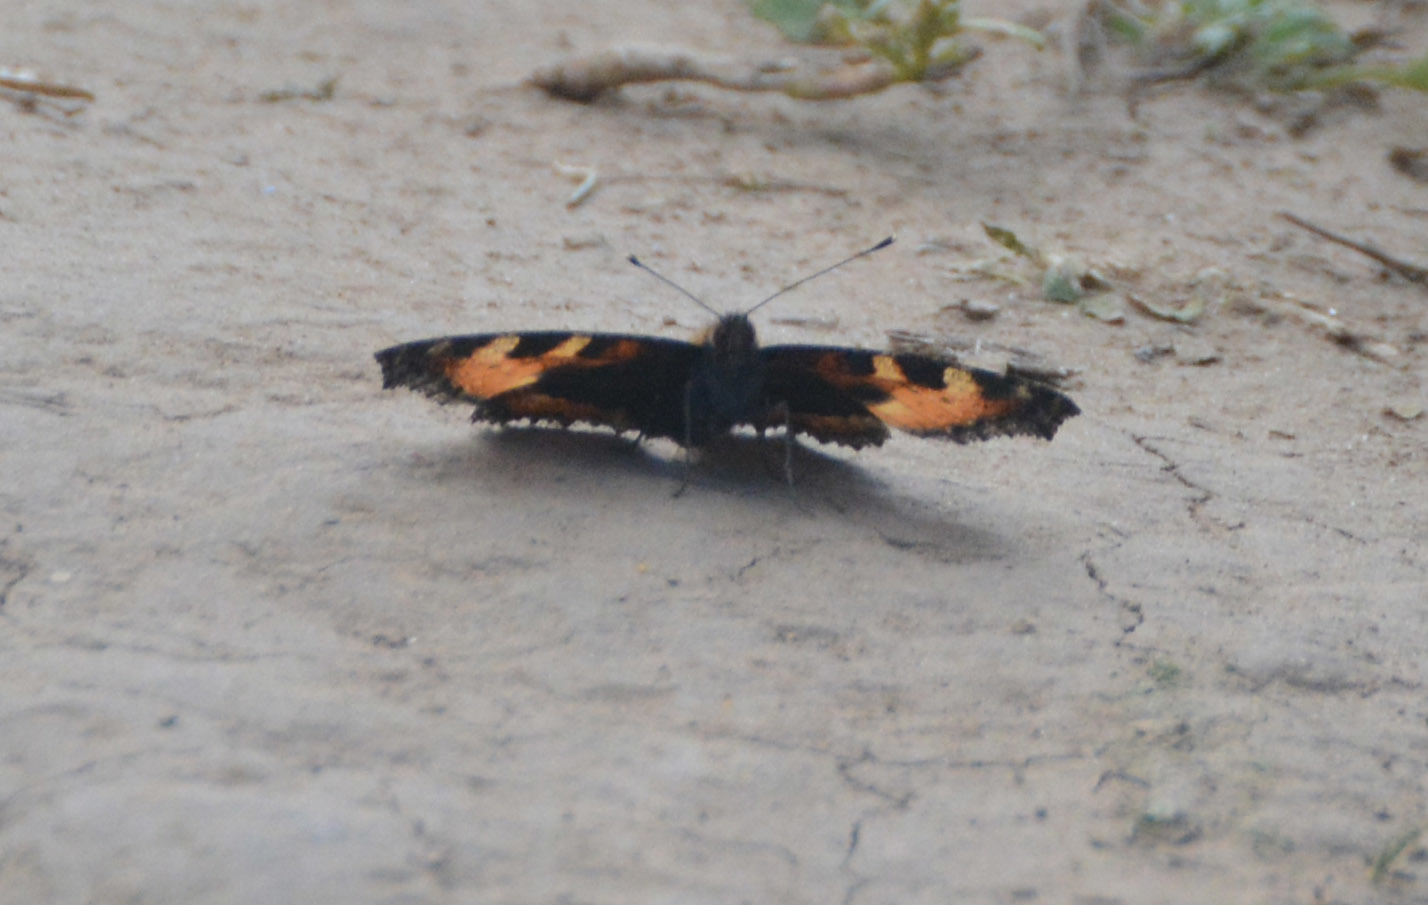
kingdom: Animalia
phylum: Arthropoda
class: Insecta
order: Lepidoptera
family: Nymphalidae
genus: Aglais
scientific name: Aglais urticae
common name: Small tortoiseshell
